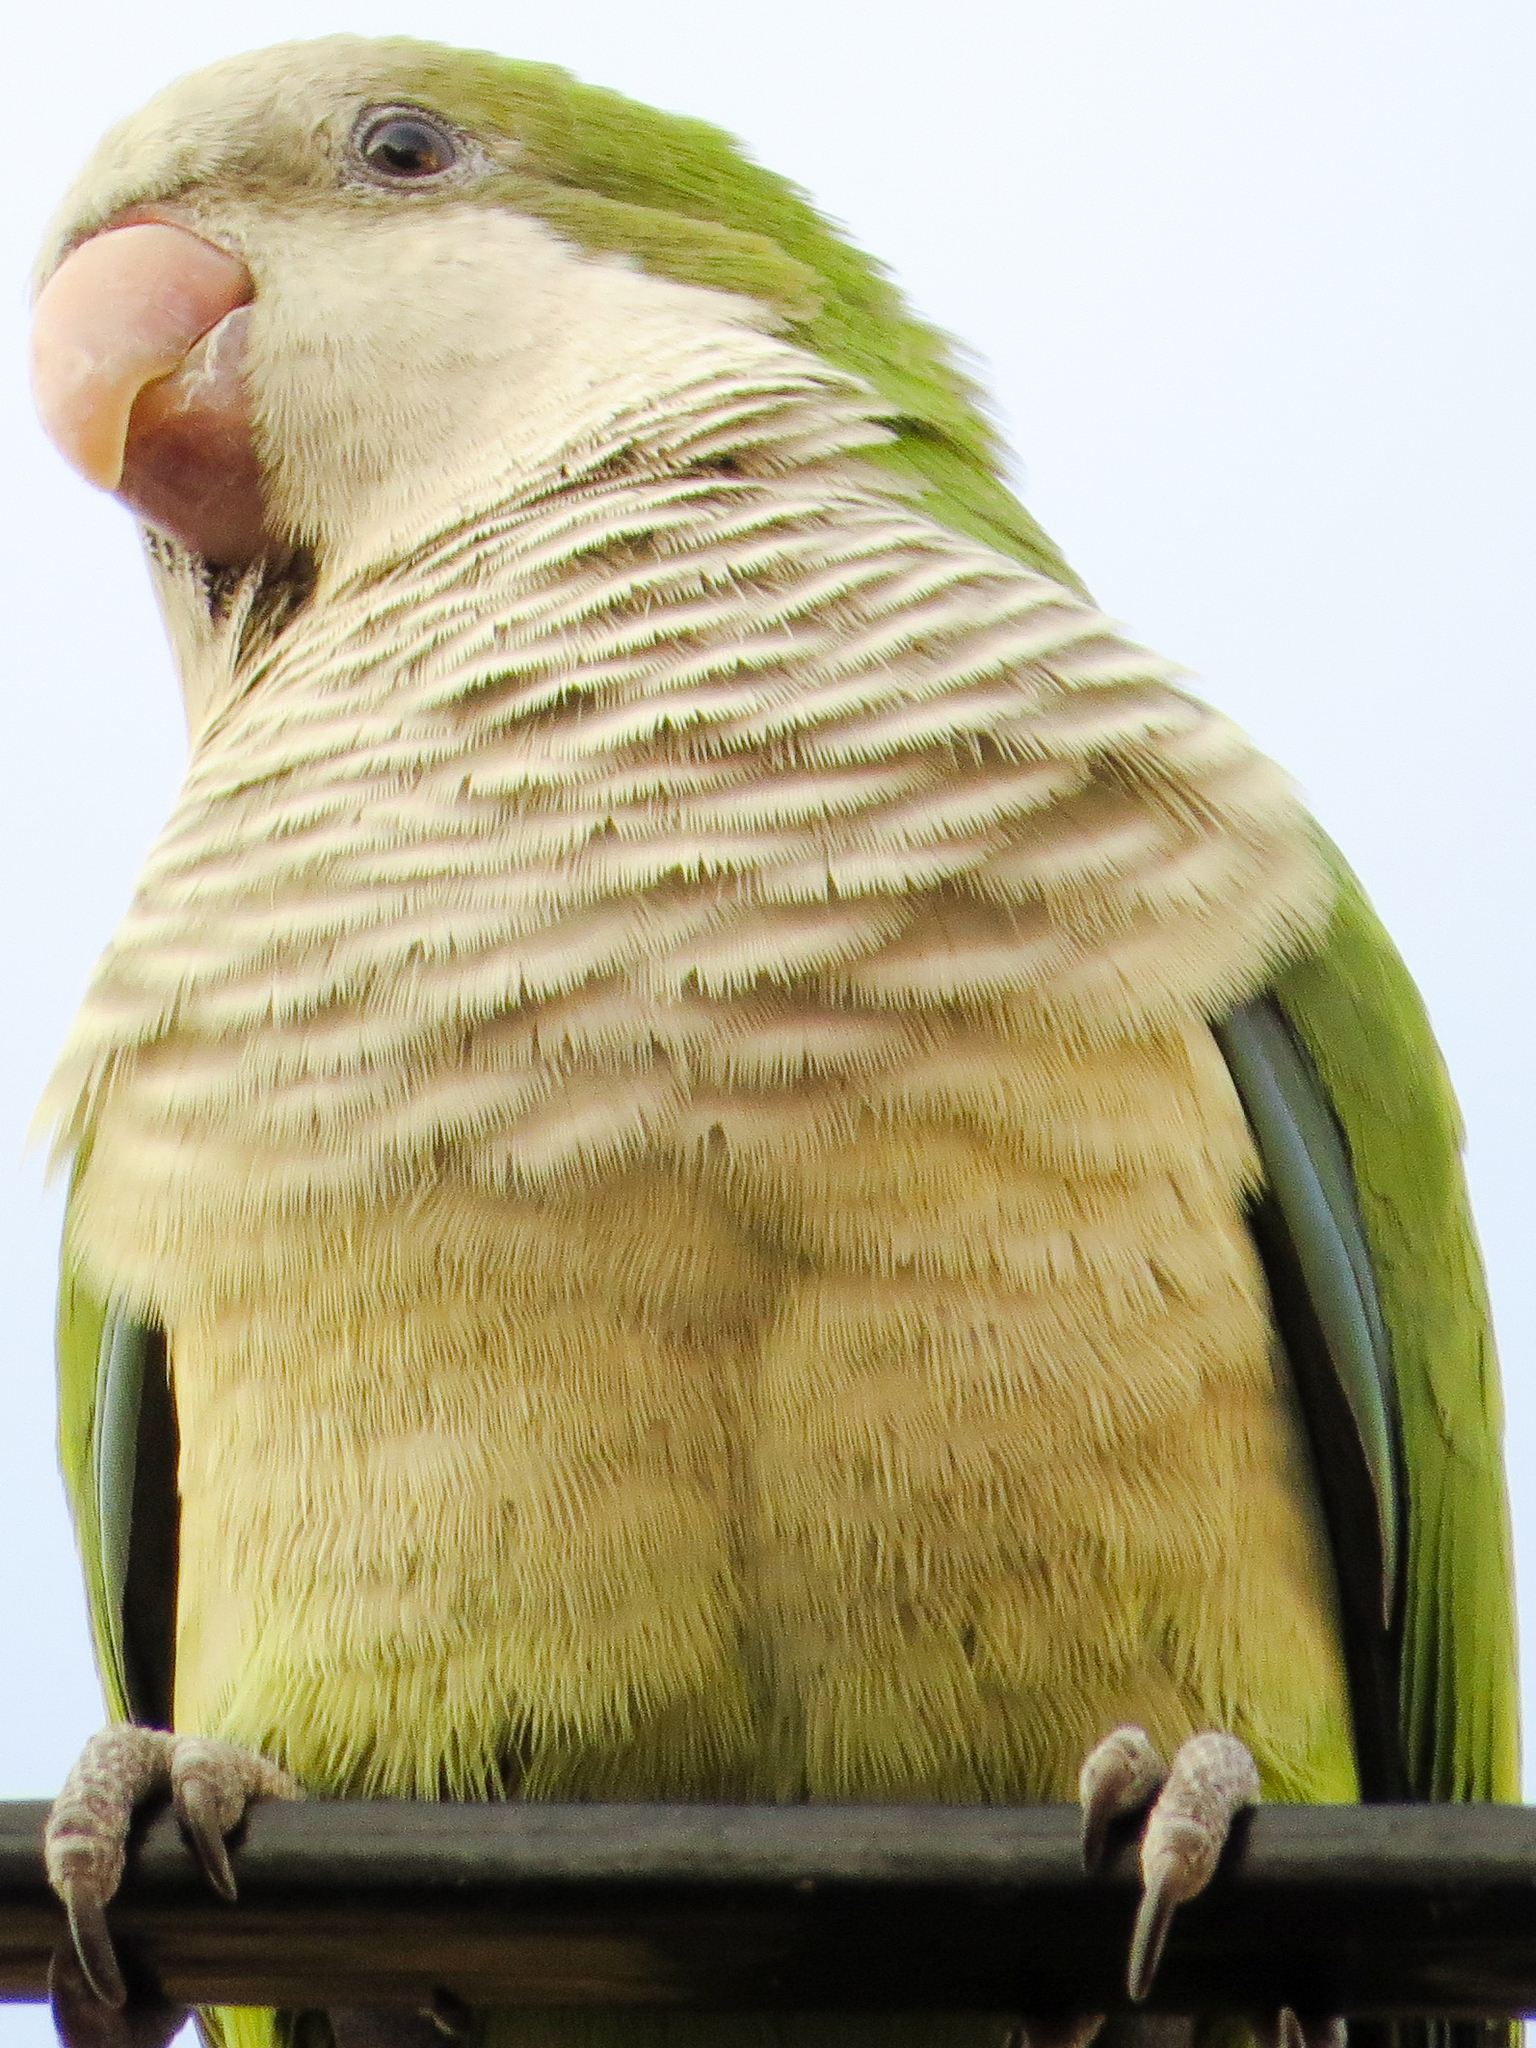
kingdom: Animalia
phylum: Chordata
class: Aves
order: Psittaciformes
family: Psittacidae
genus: Myiopsitta
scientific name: Myiopsitta monachus
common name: Monk parakeet
